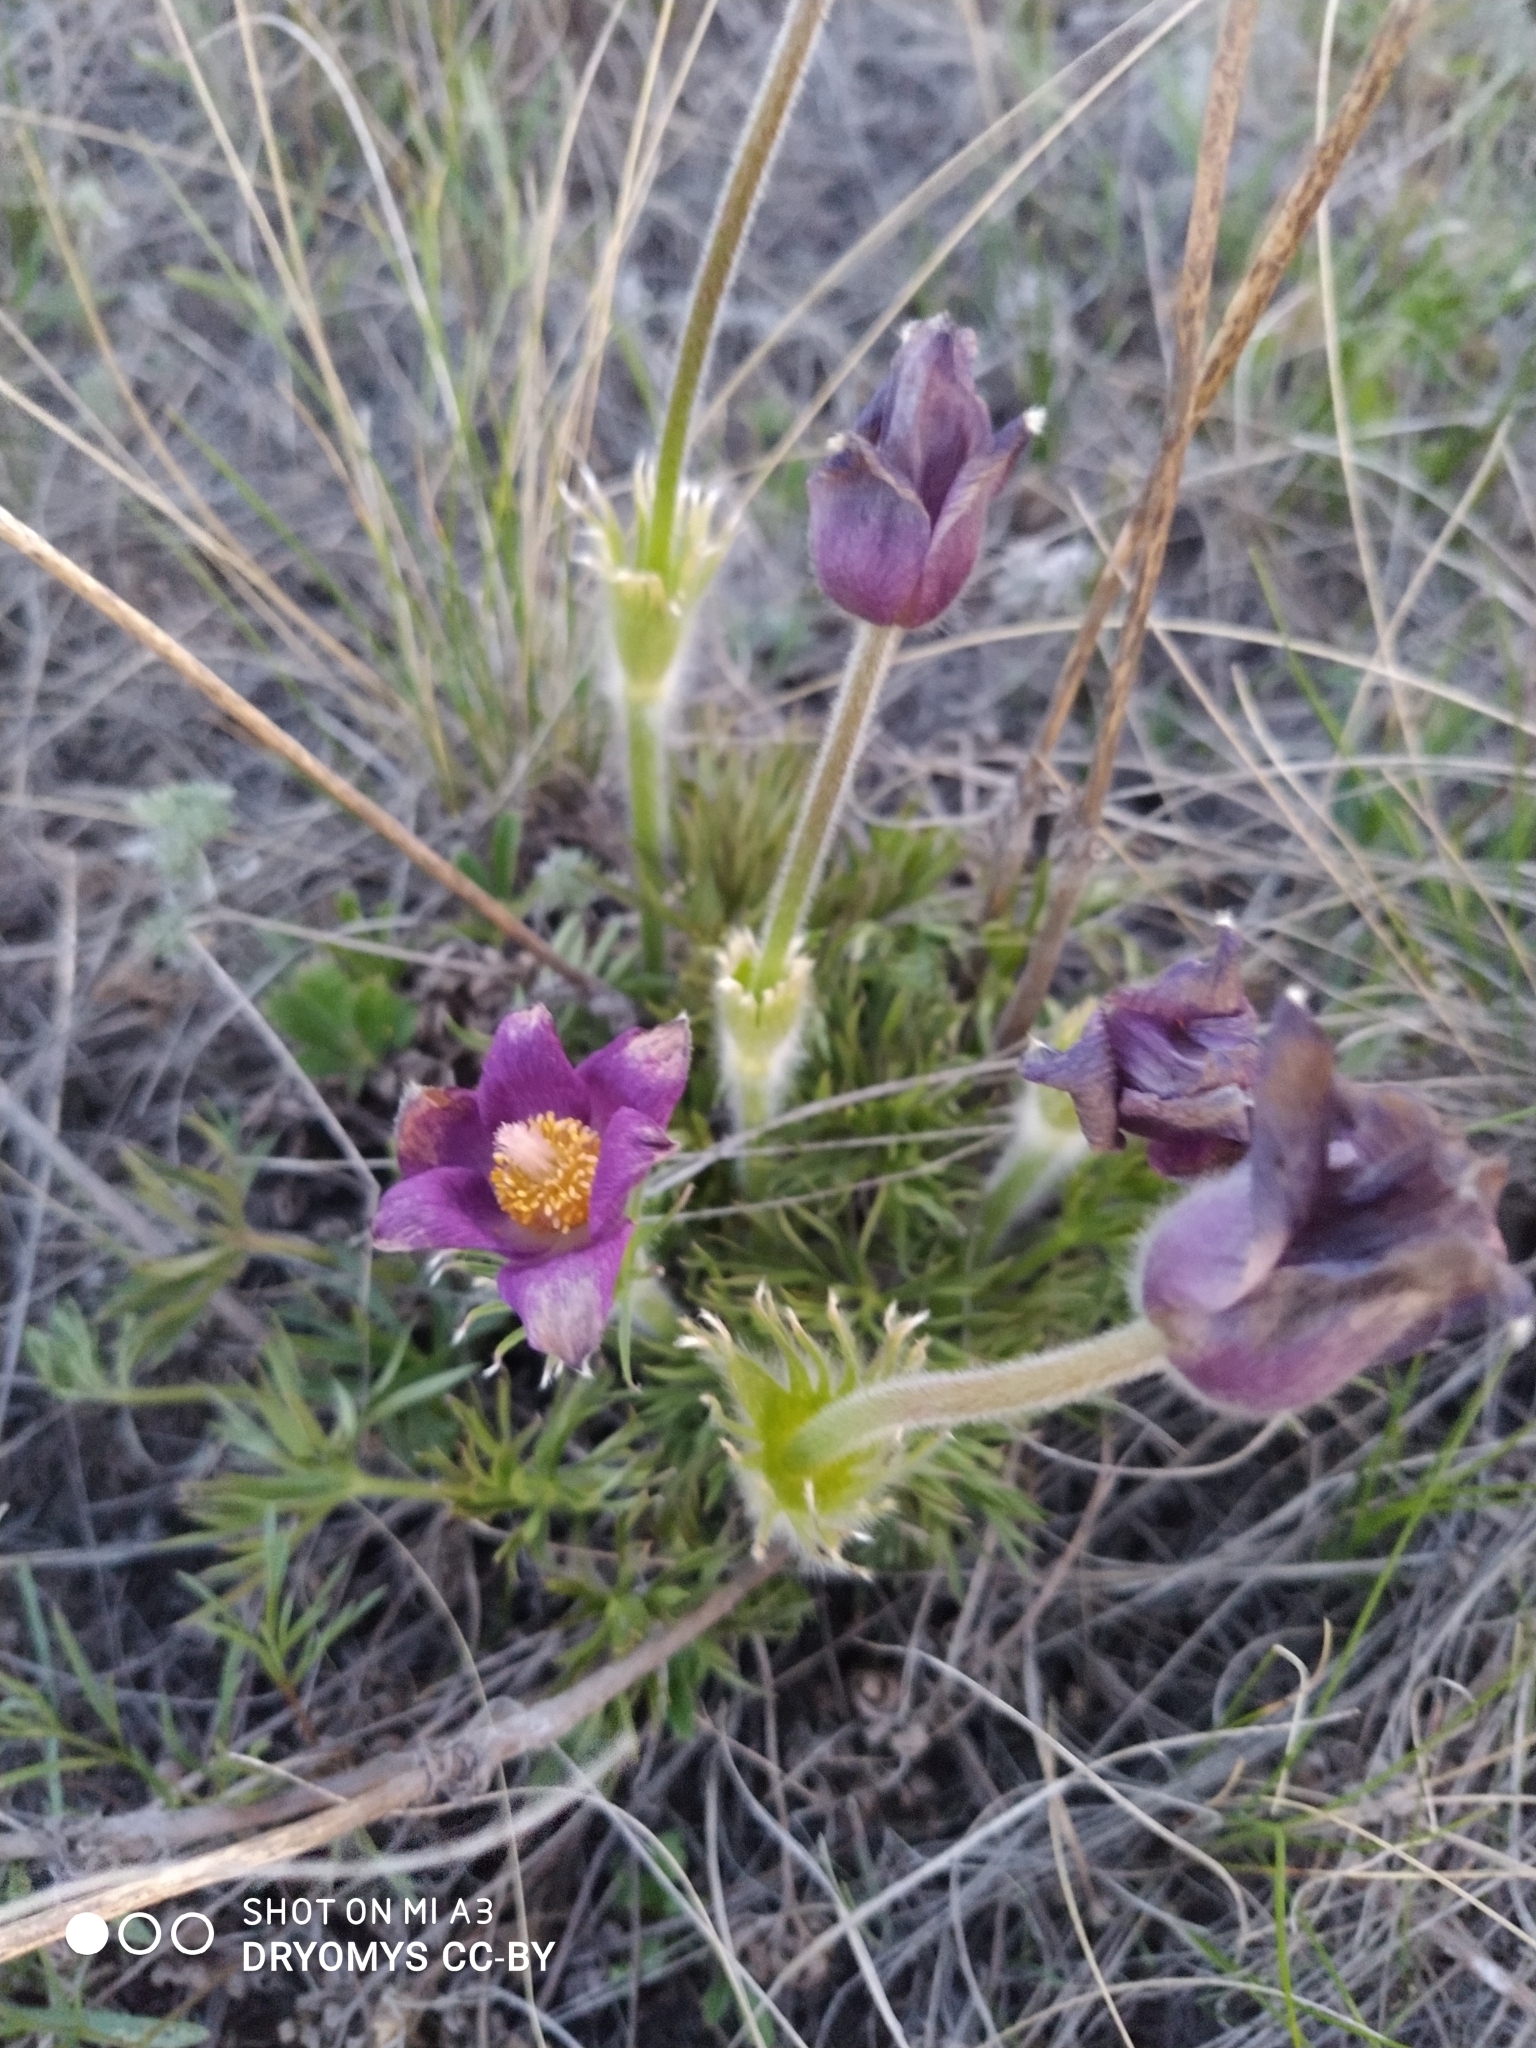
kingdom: Plantae
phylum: Tracheophyta
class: Magnoliopsida
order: Ranunculales
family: Ranunculaceae
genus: Pulsatilla
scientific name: Pulsatilla patens
